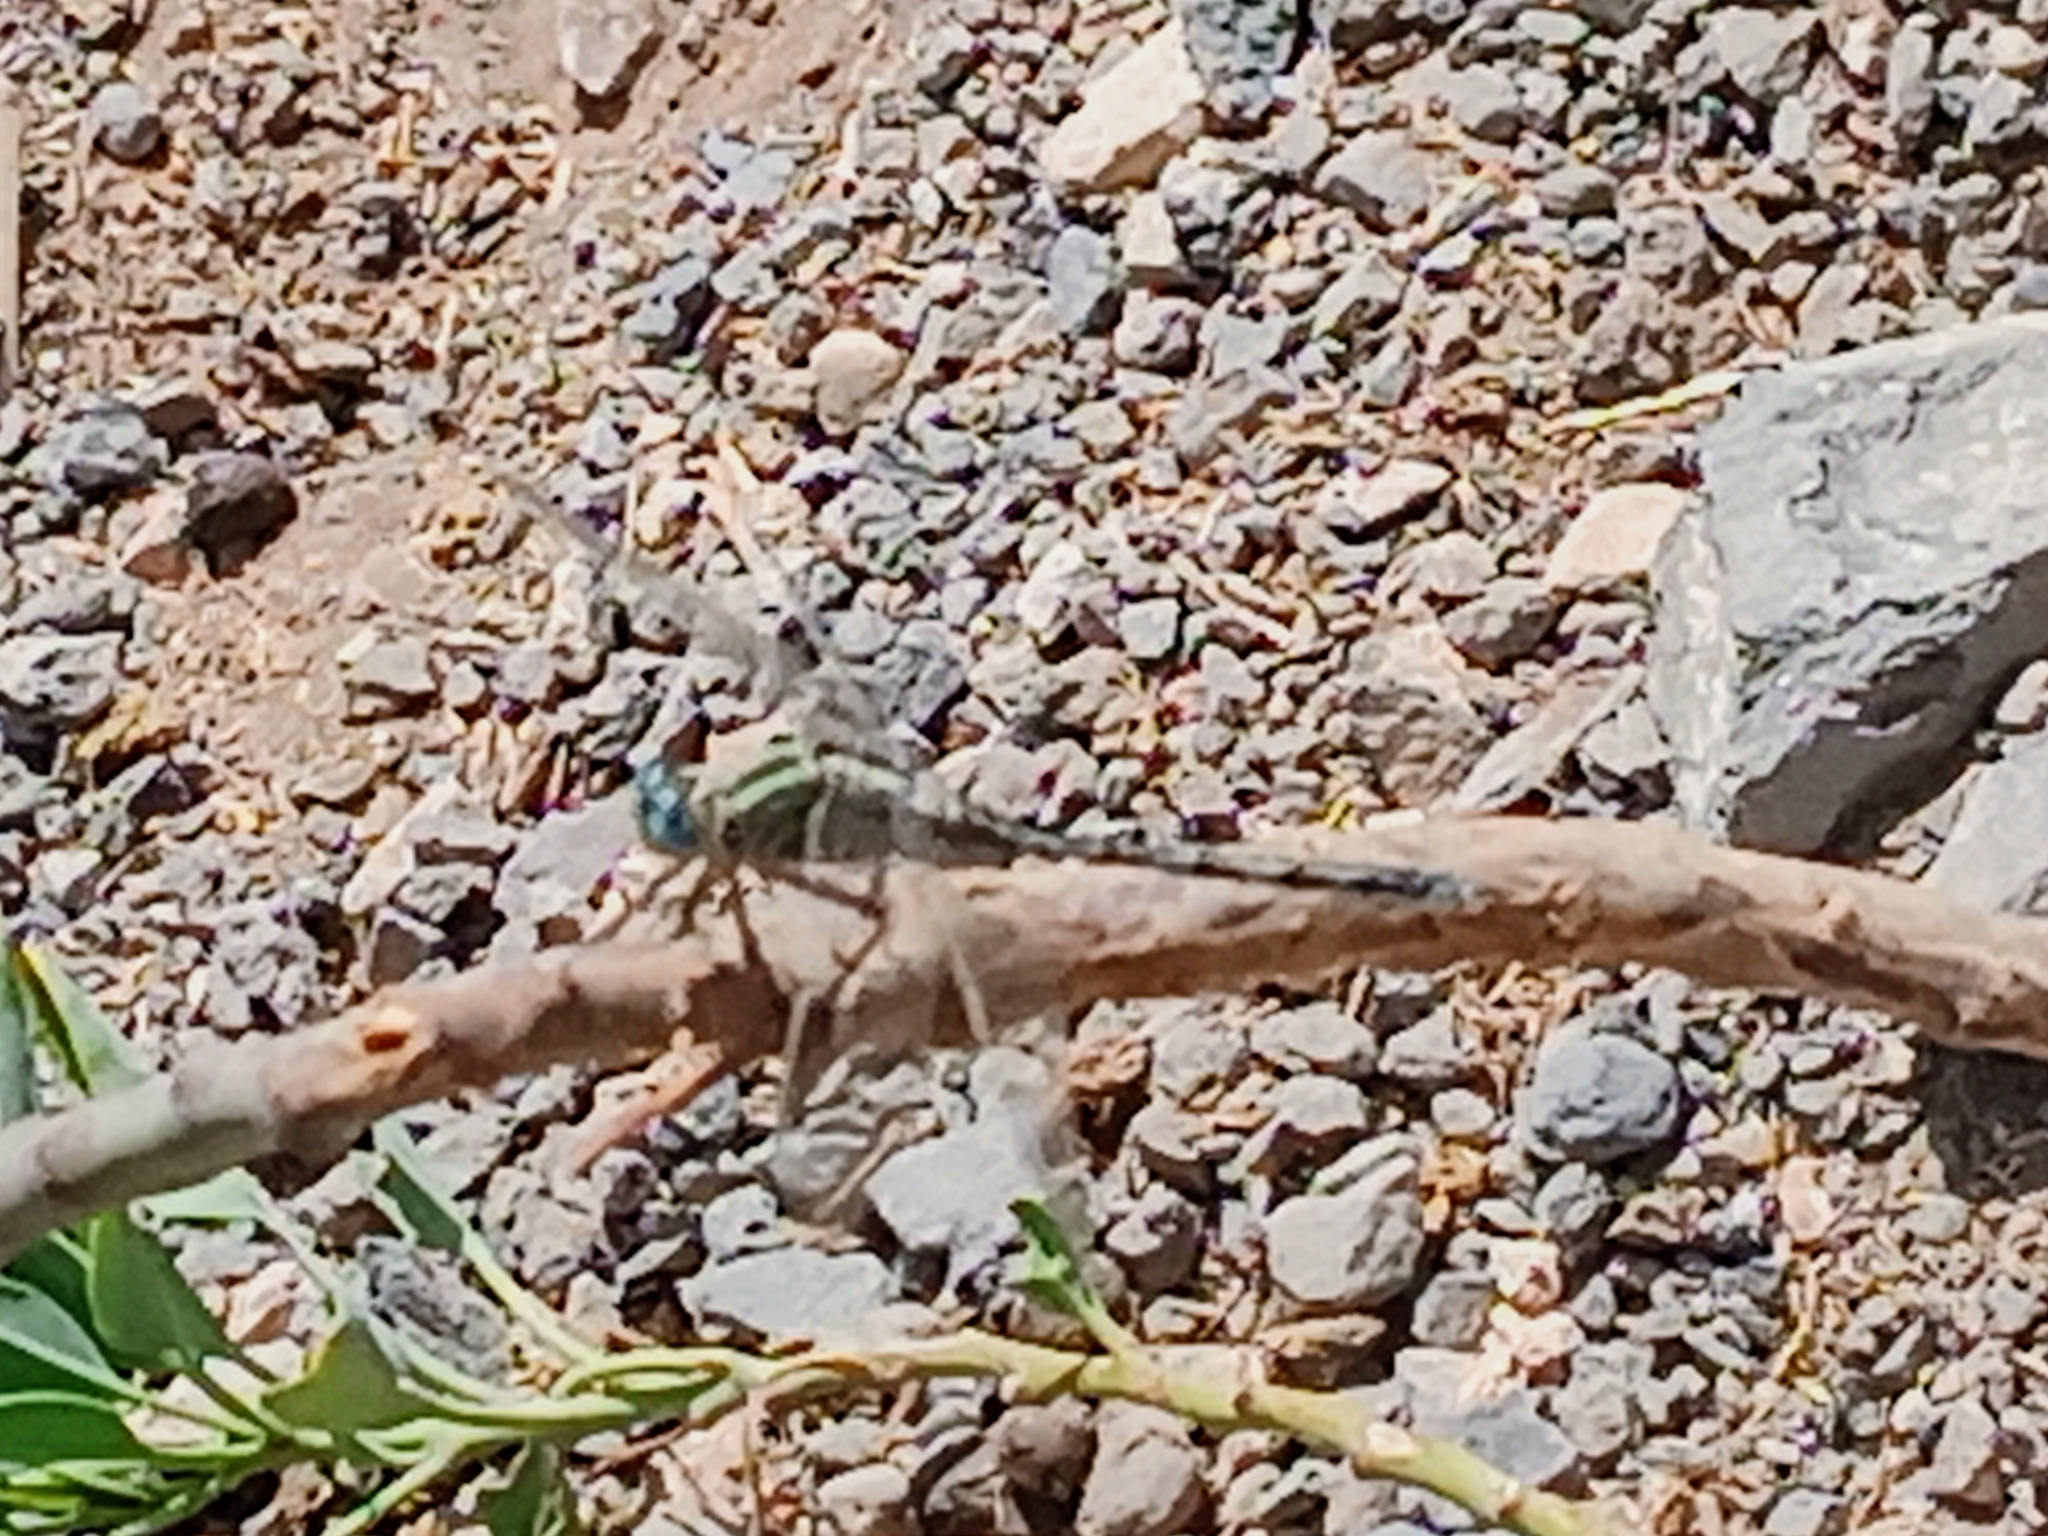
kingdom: Animalia
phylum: Arthropoda
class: Insecta
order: Odonata
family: Libellulidae
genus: Orthetrum
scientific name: Orthetrum trinacria
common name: Long skimmer
